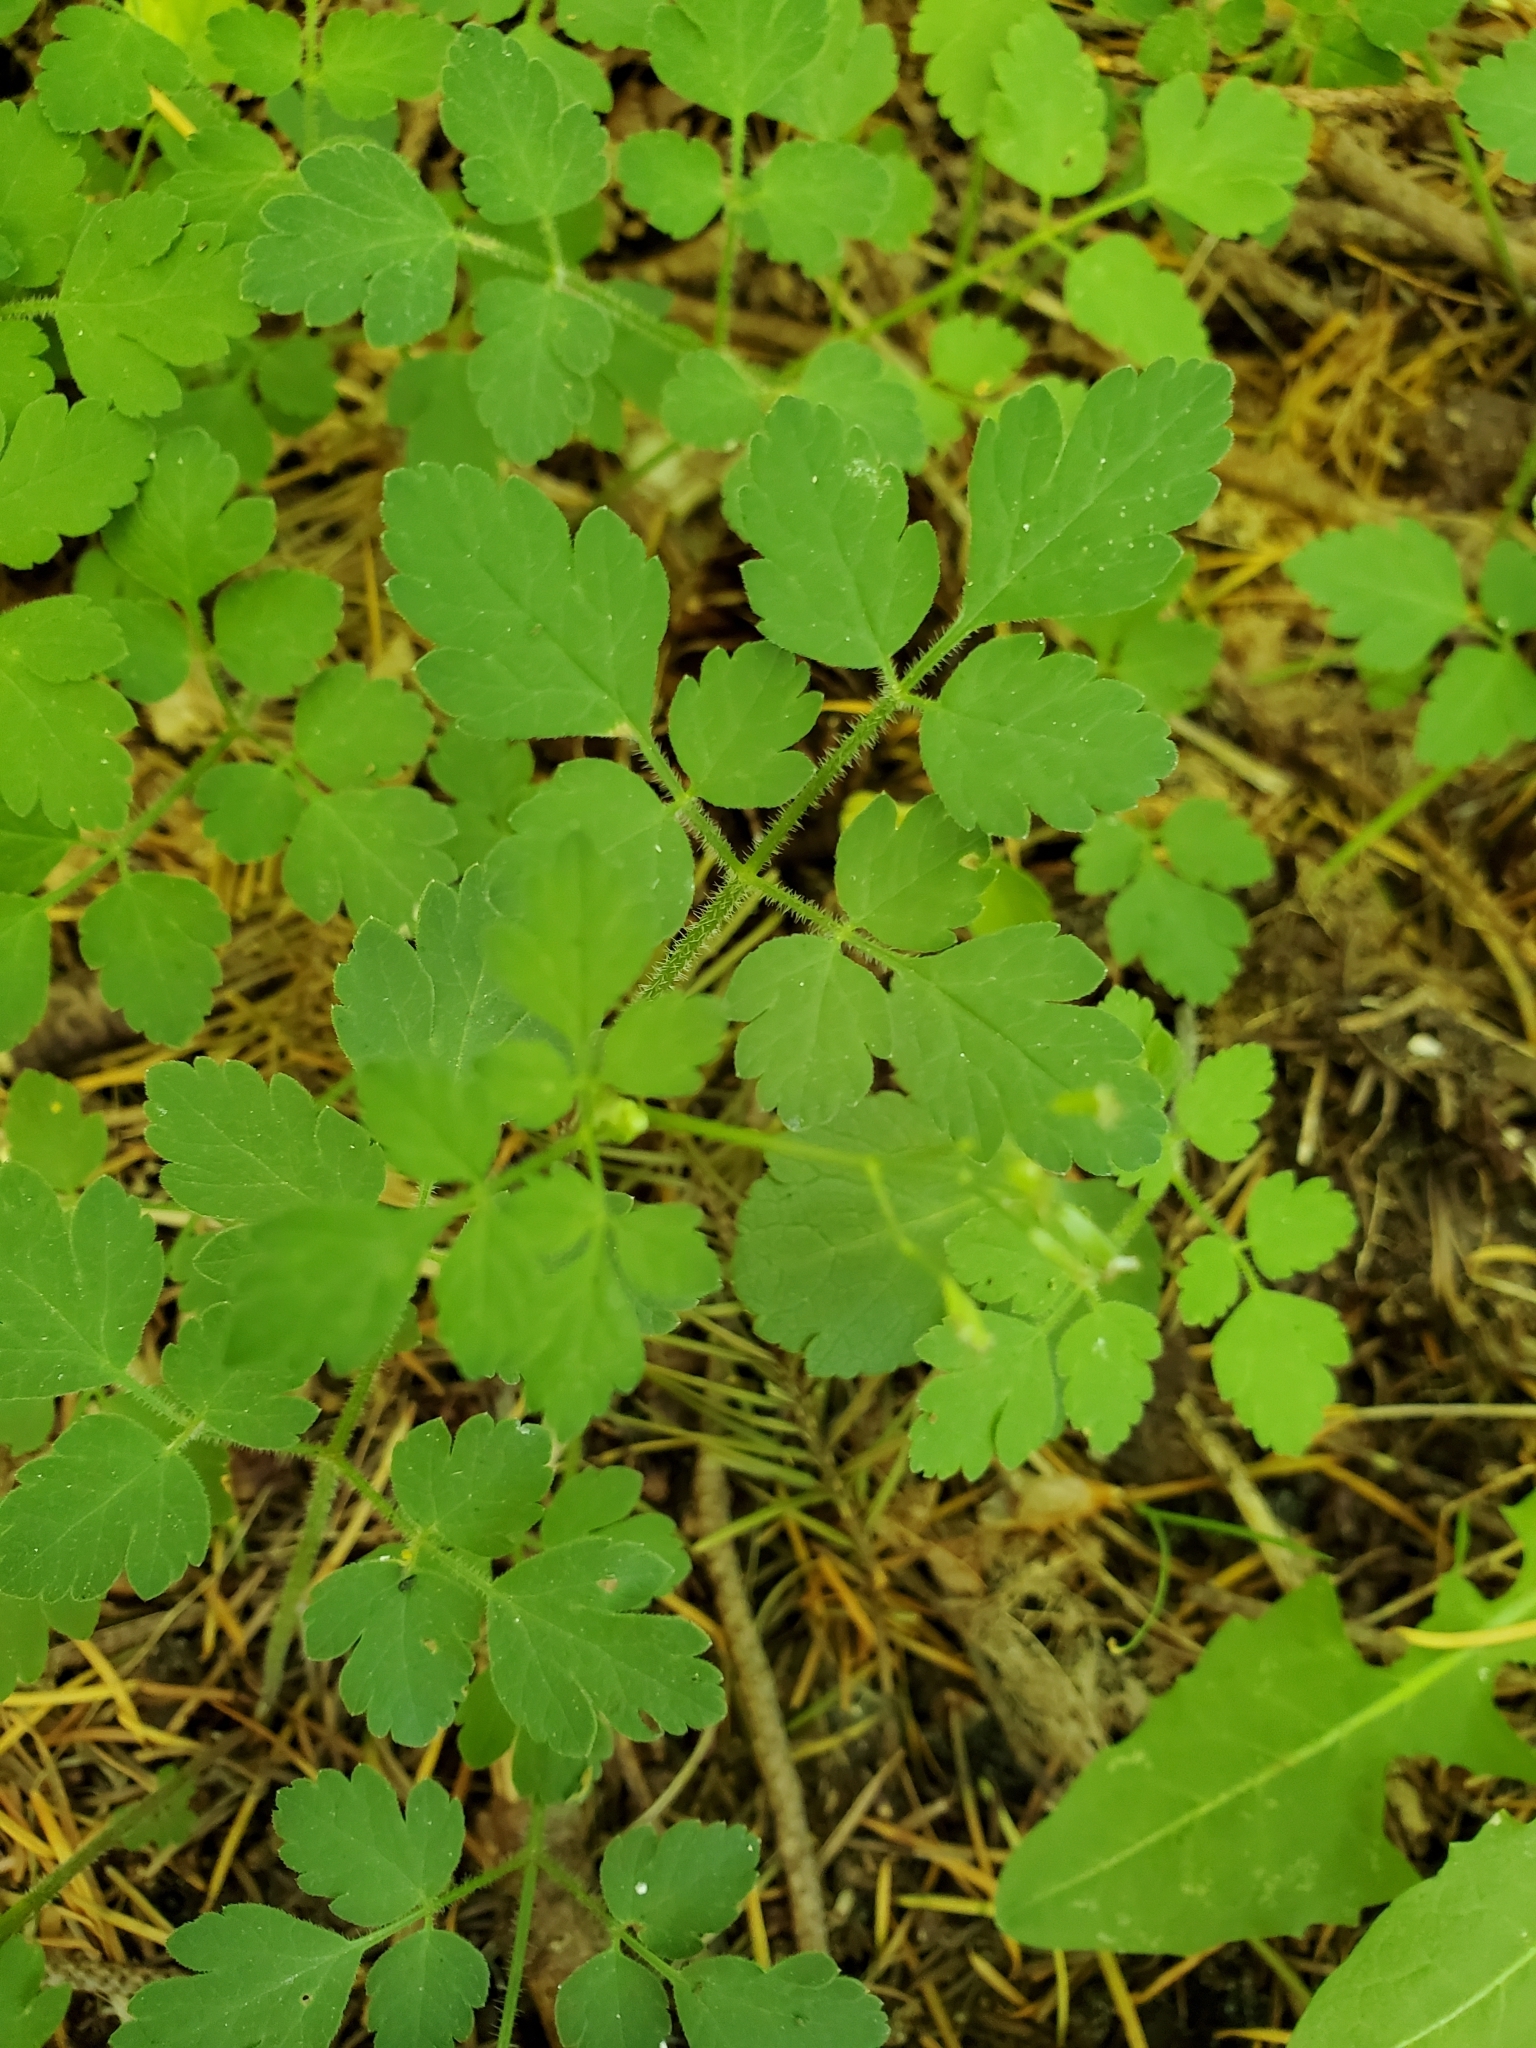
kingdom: Plantae
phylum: Tracheophyta
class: Magnoliopsida
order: Apiales
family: Apiaceae
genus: Osmorhiza
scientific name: Osmorhiza berteroi
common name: Mountain sweet cicely
